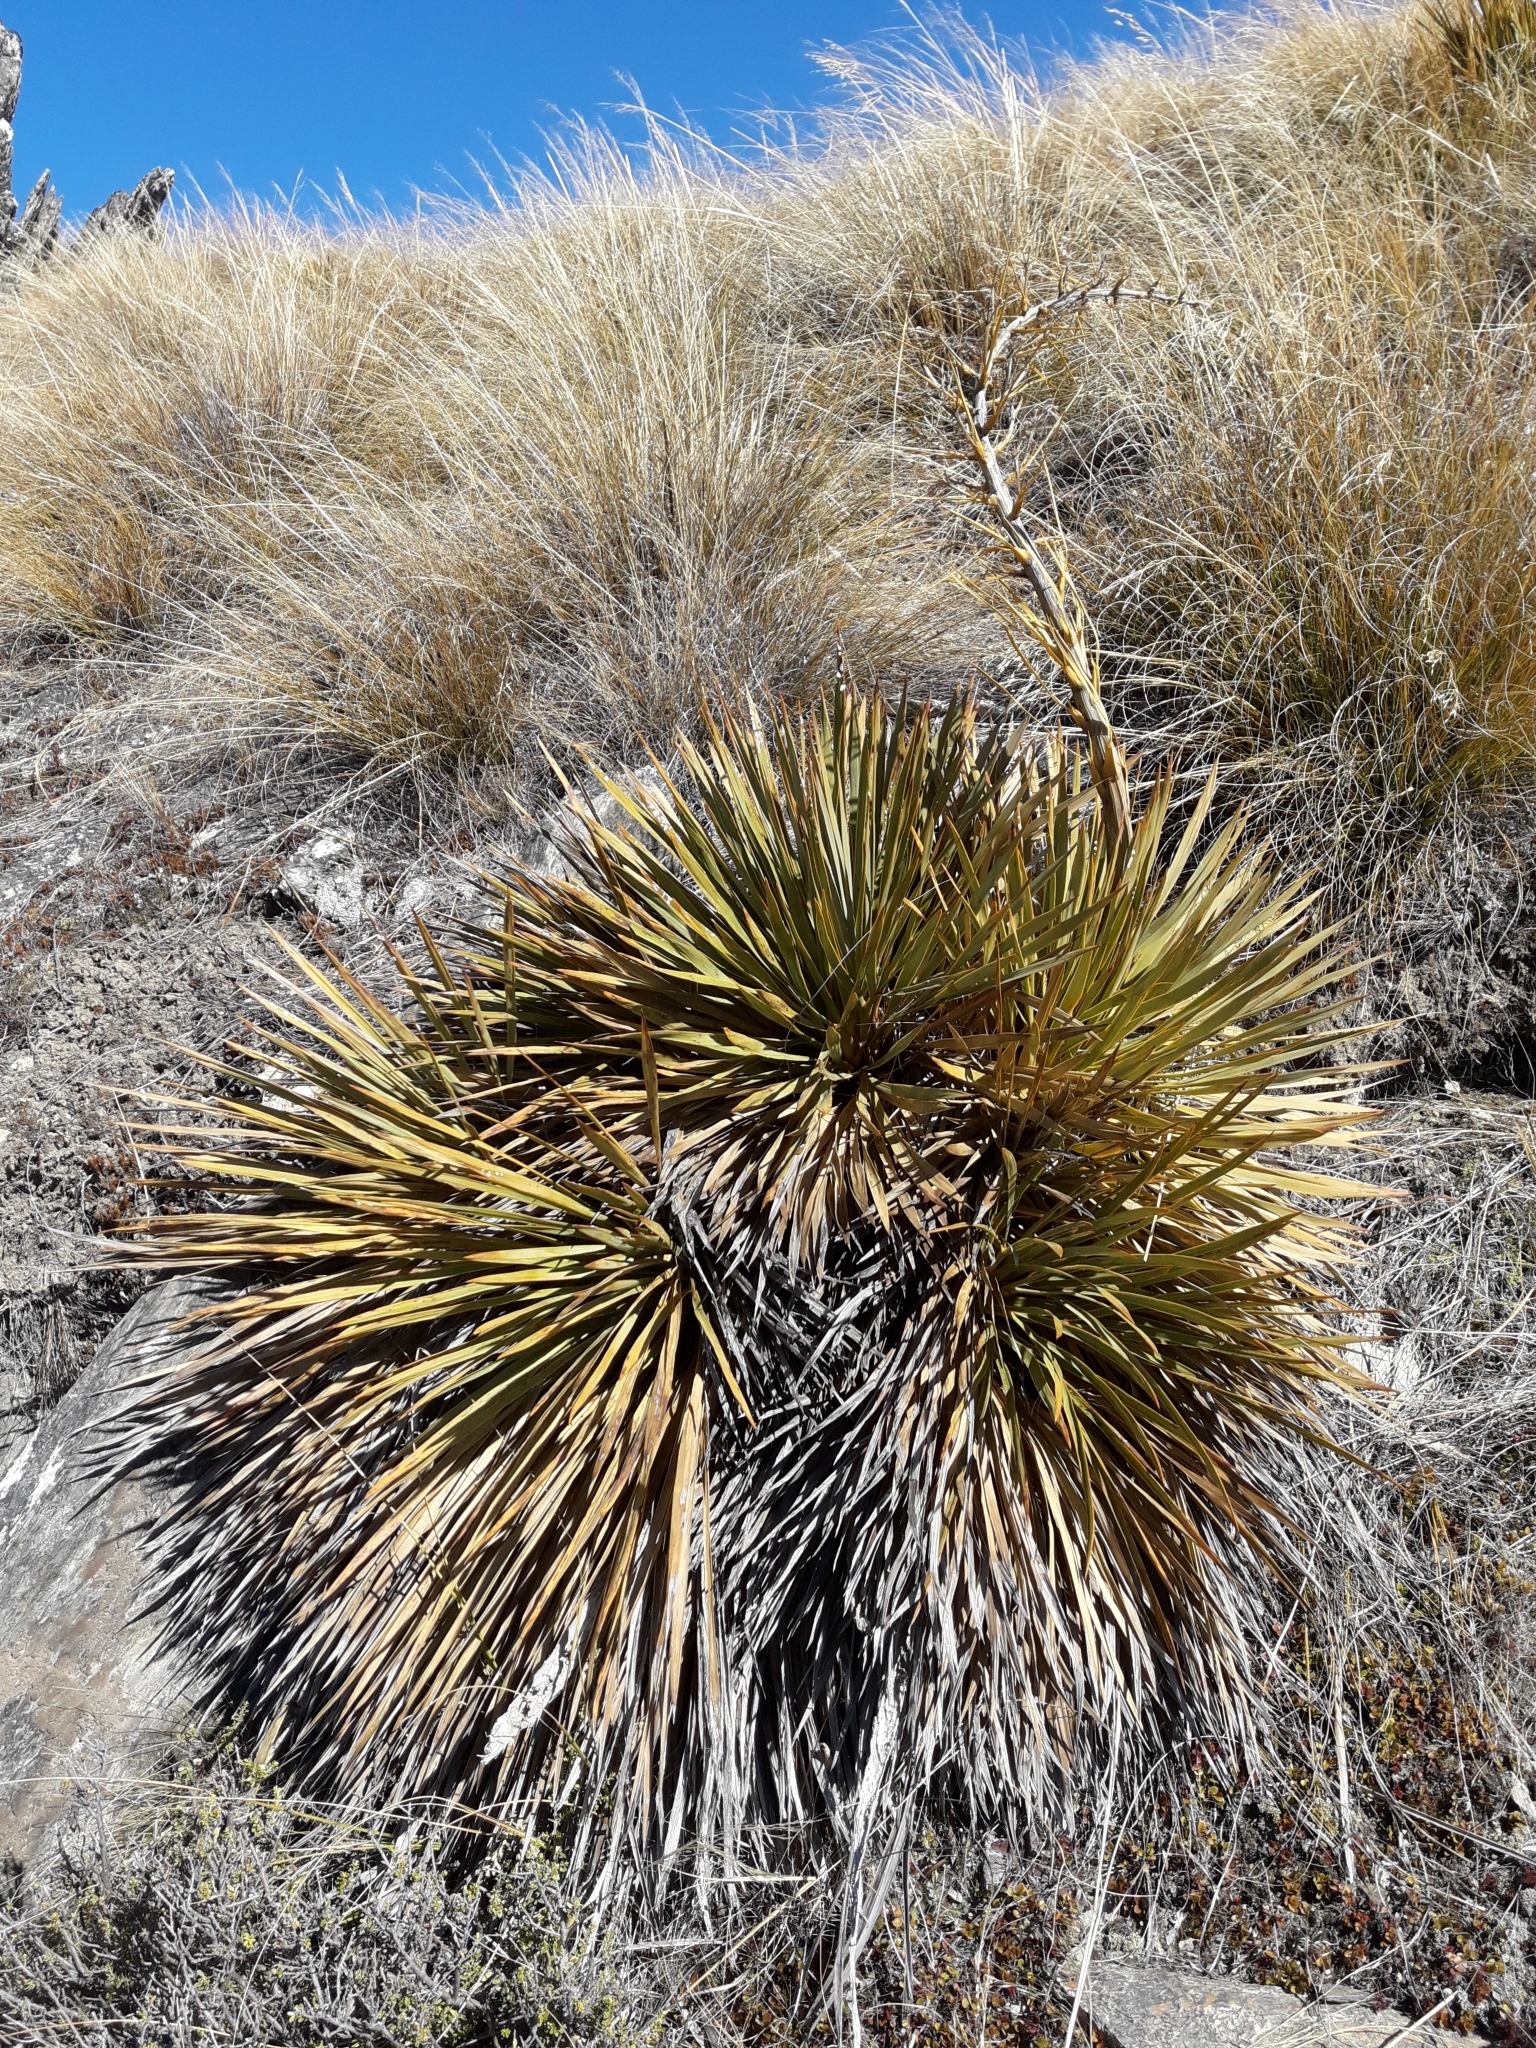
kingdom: Plantae
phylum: Tracheophyta
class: Magnoliopsida
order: Apiales
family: Apiaceae
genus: Aciphylla
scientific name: Aciphylla aurea
